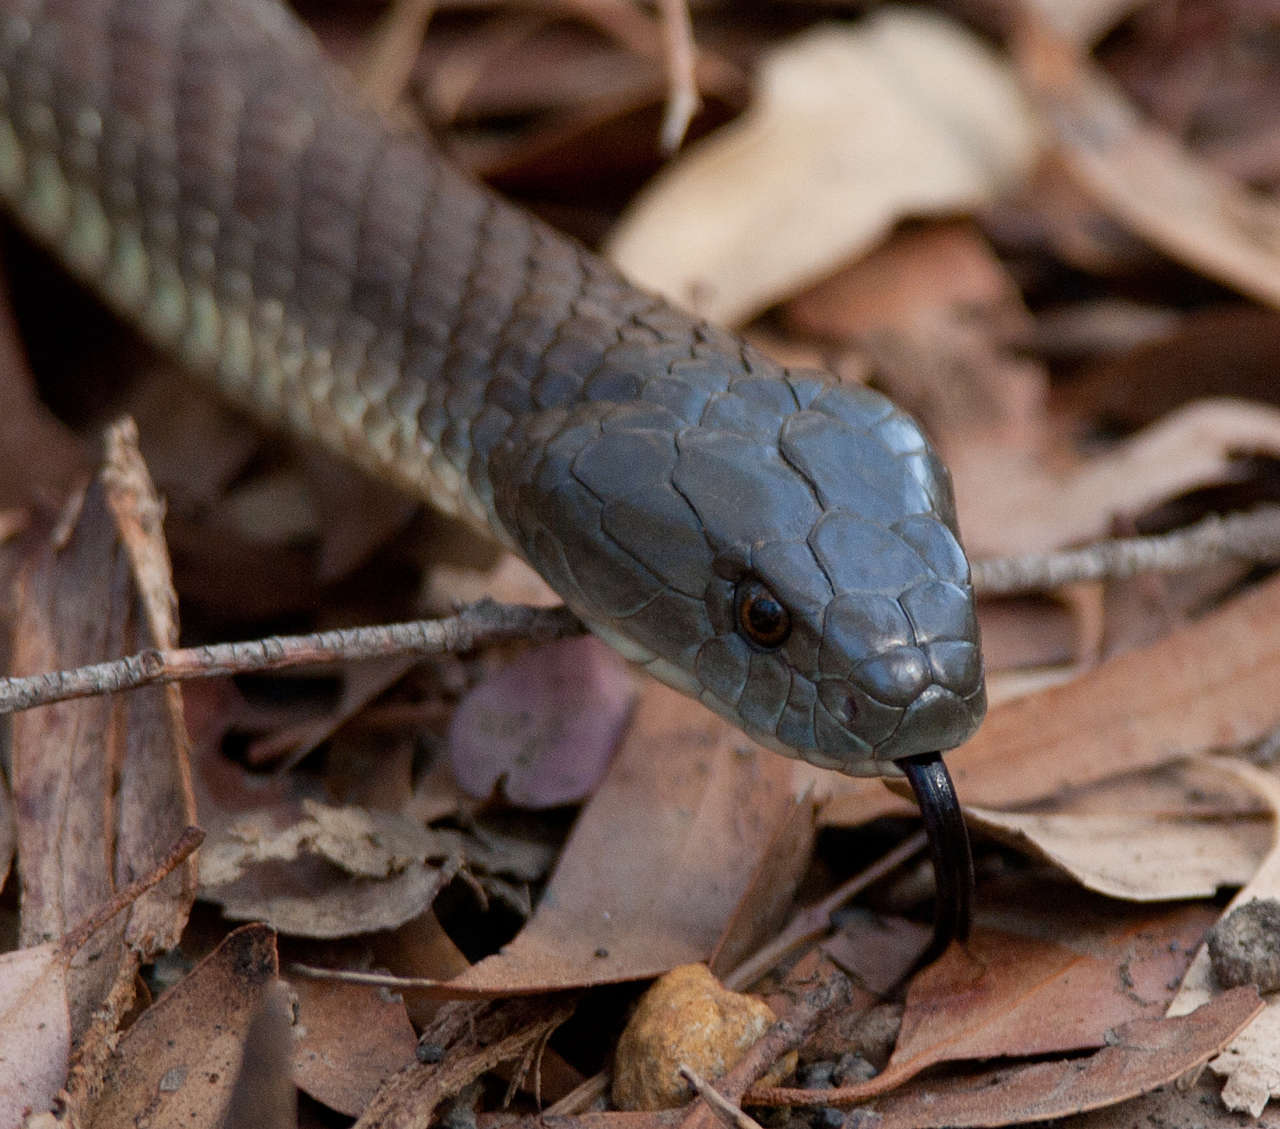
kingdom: Animalia
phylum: Chordata
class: Squamata
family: Elapidae
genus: Notechis
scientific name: Notechis scutatus
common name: Mainland tiger snake
